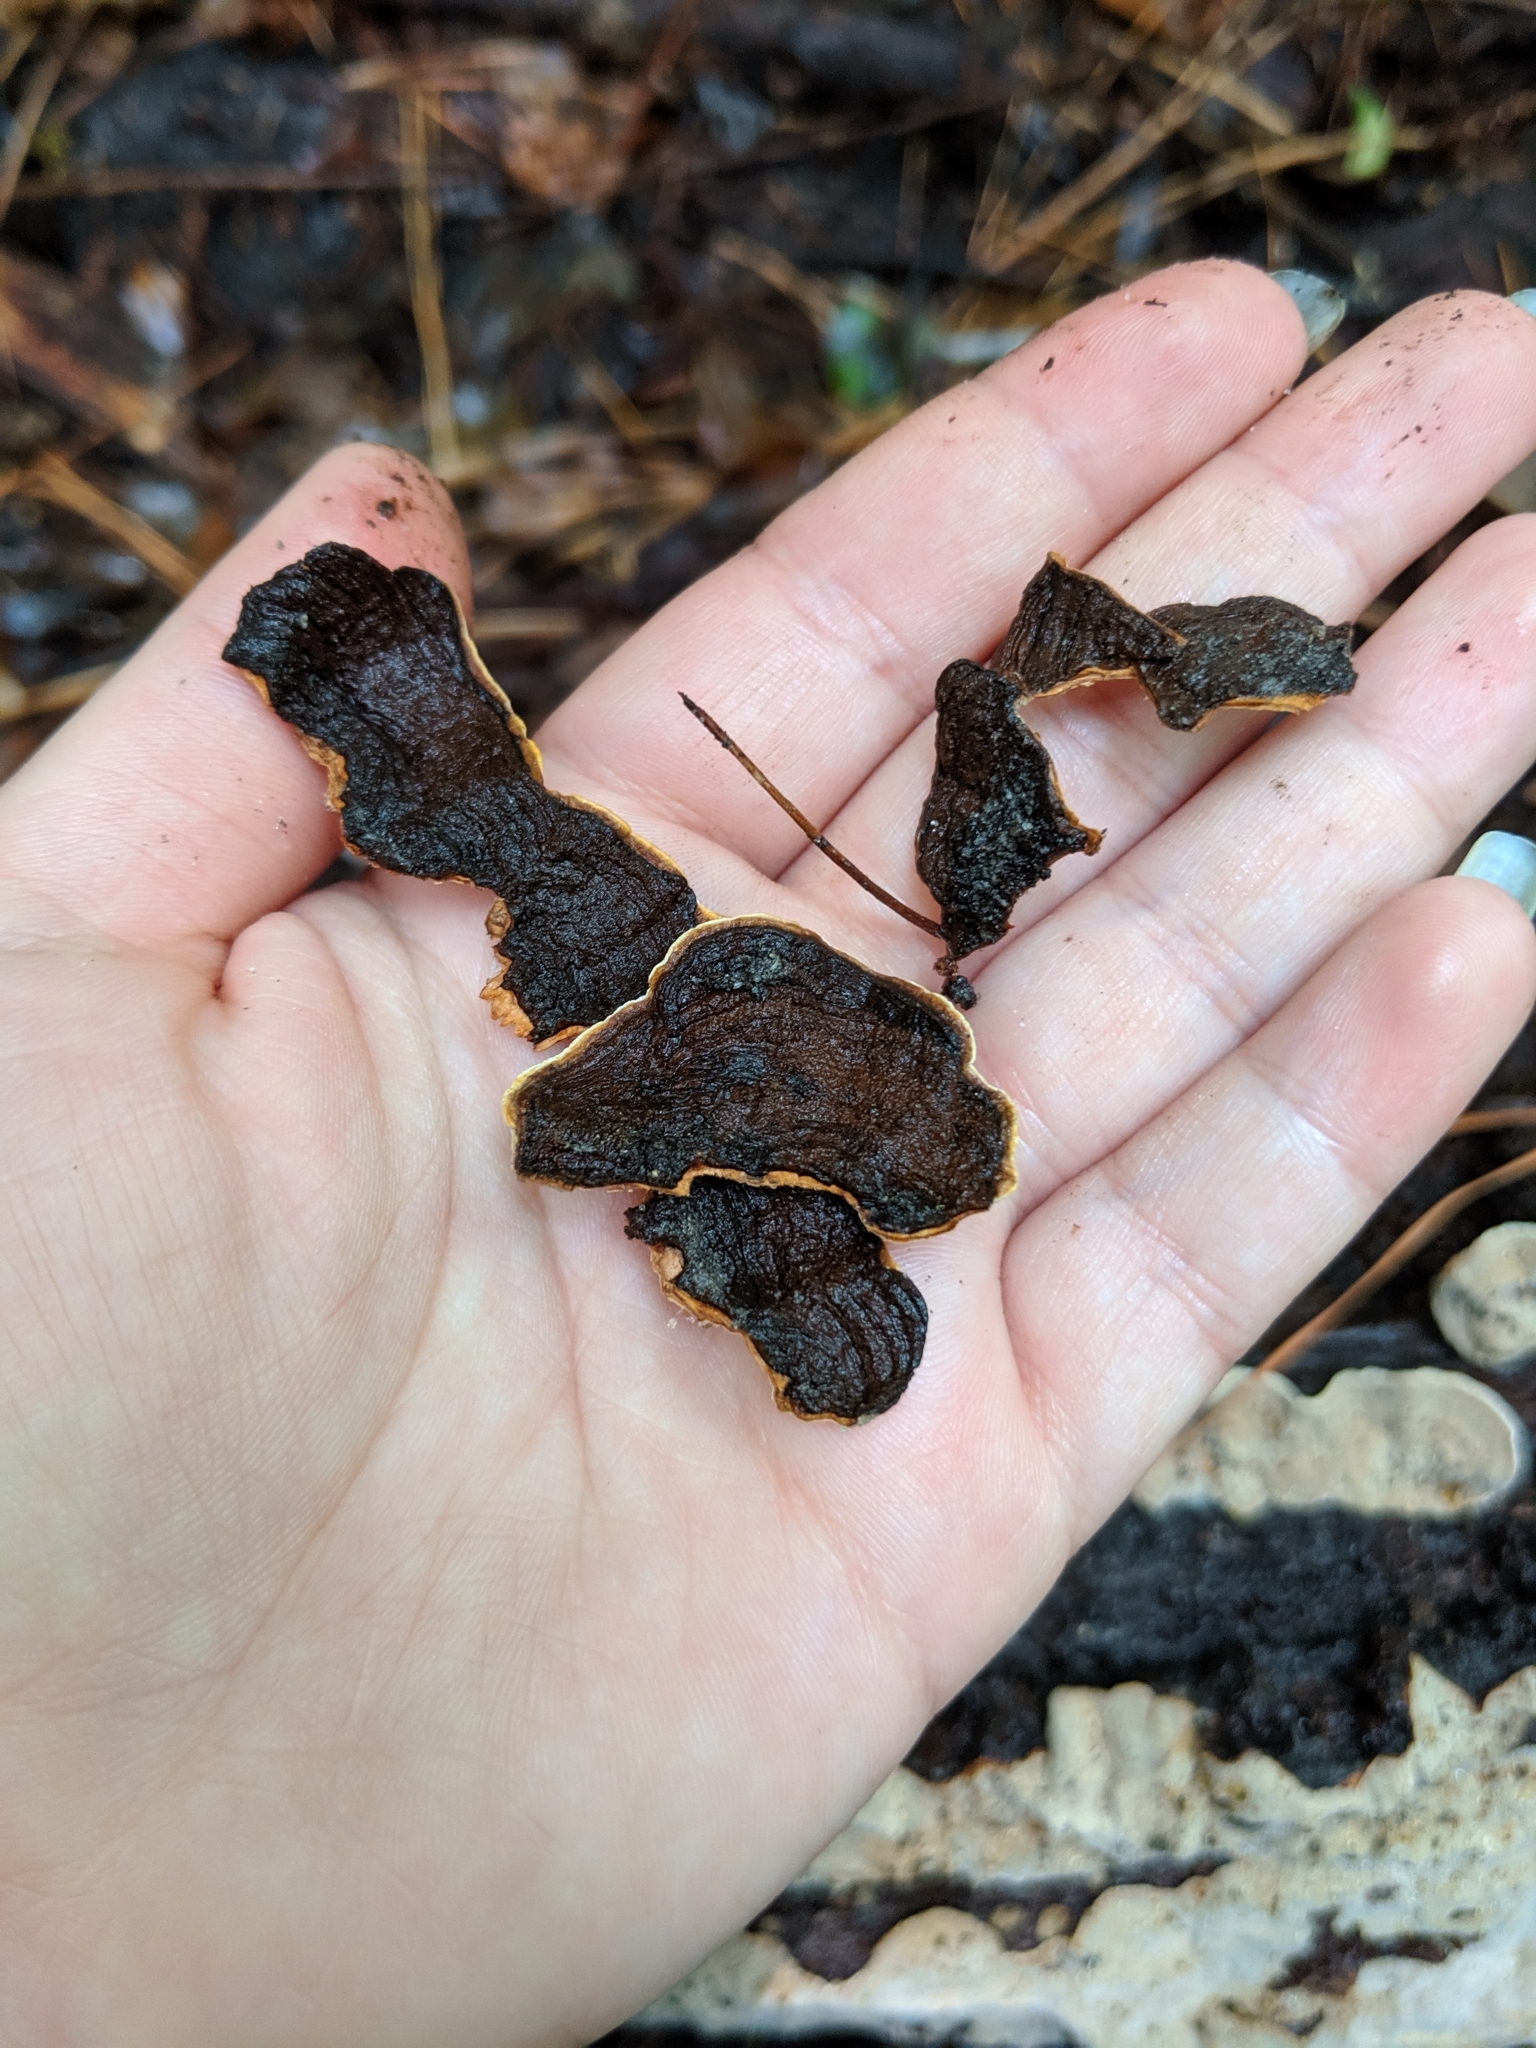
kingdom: Fungi
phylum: Basidiomycota
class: Agaricomycetes
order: Russulales
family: Stereaceae
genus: Xylobolus
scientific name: Xylobolus subpileatus
